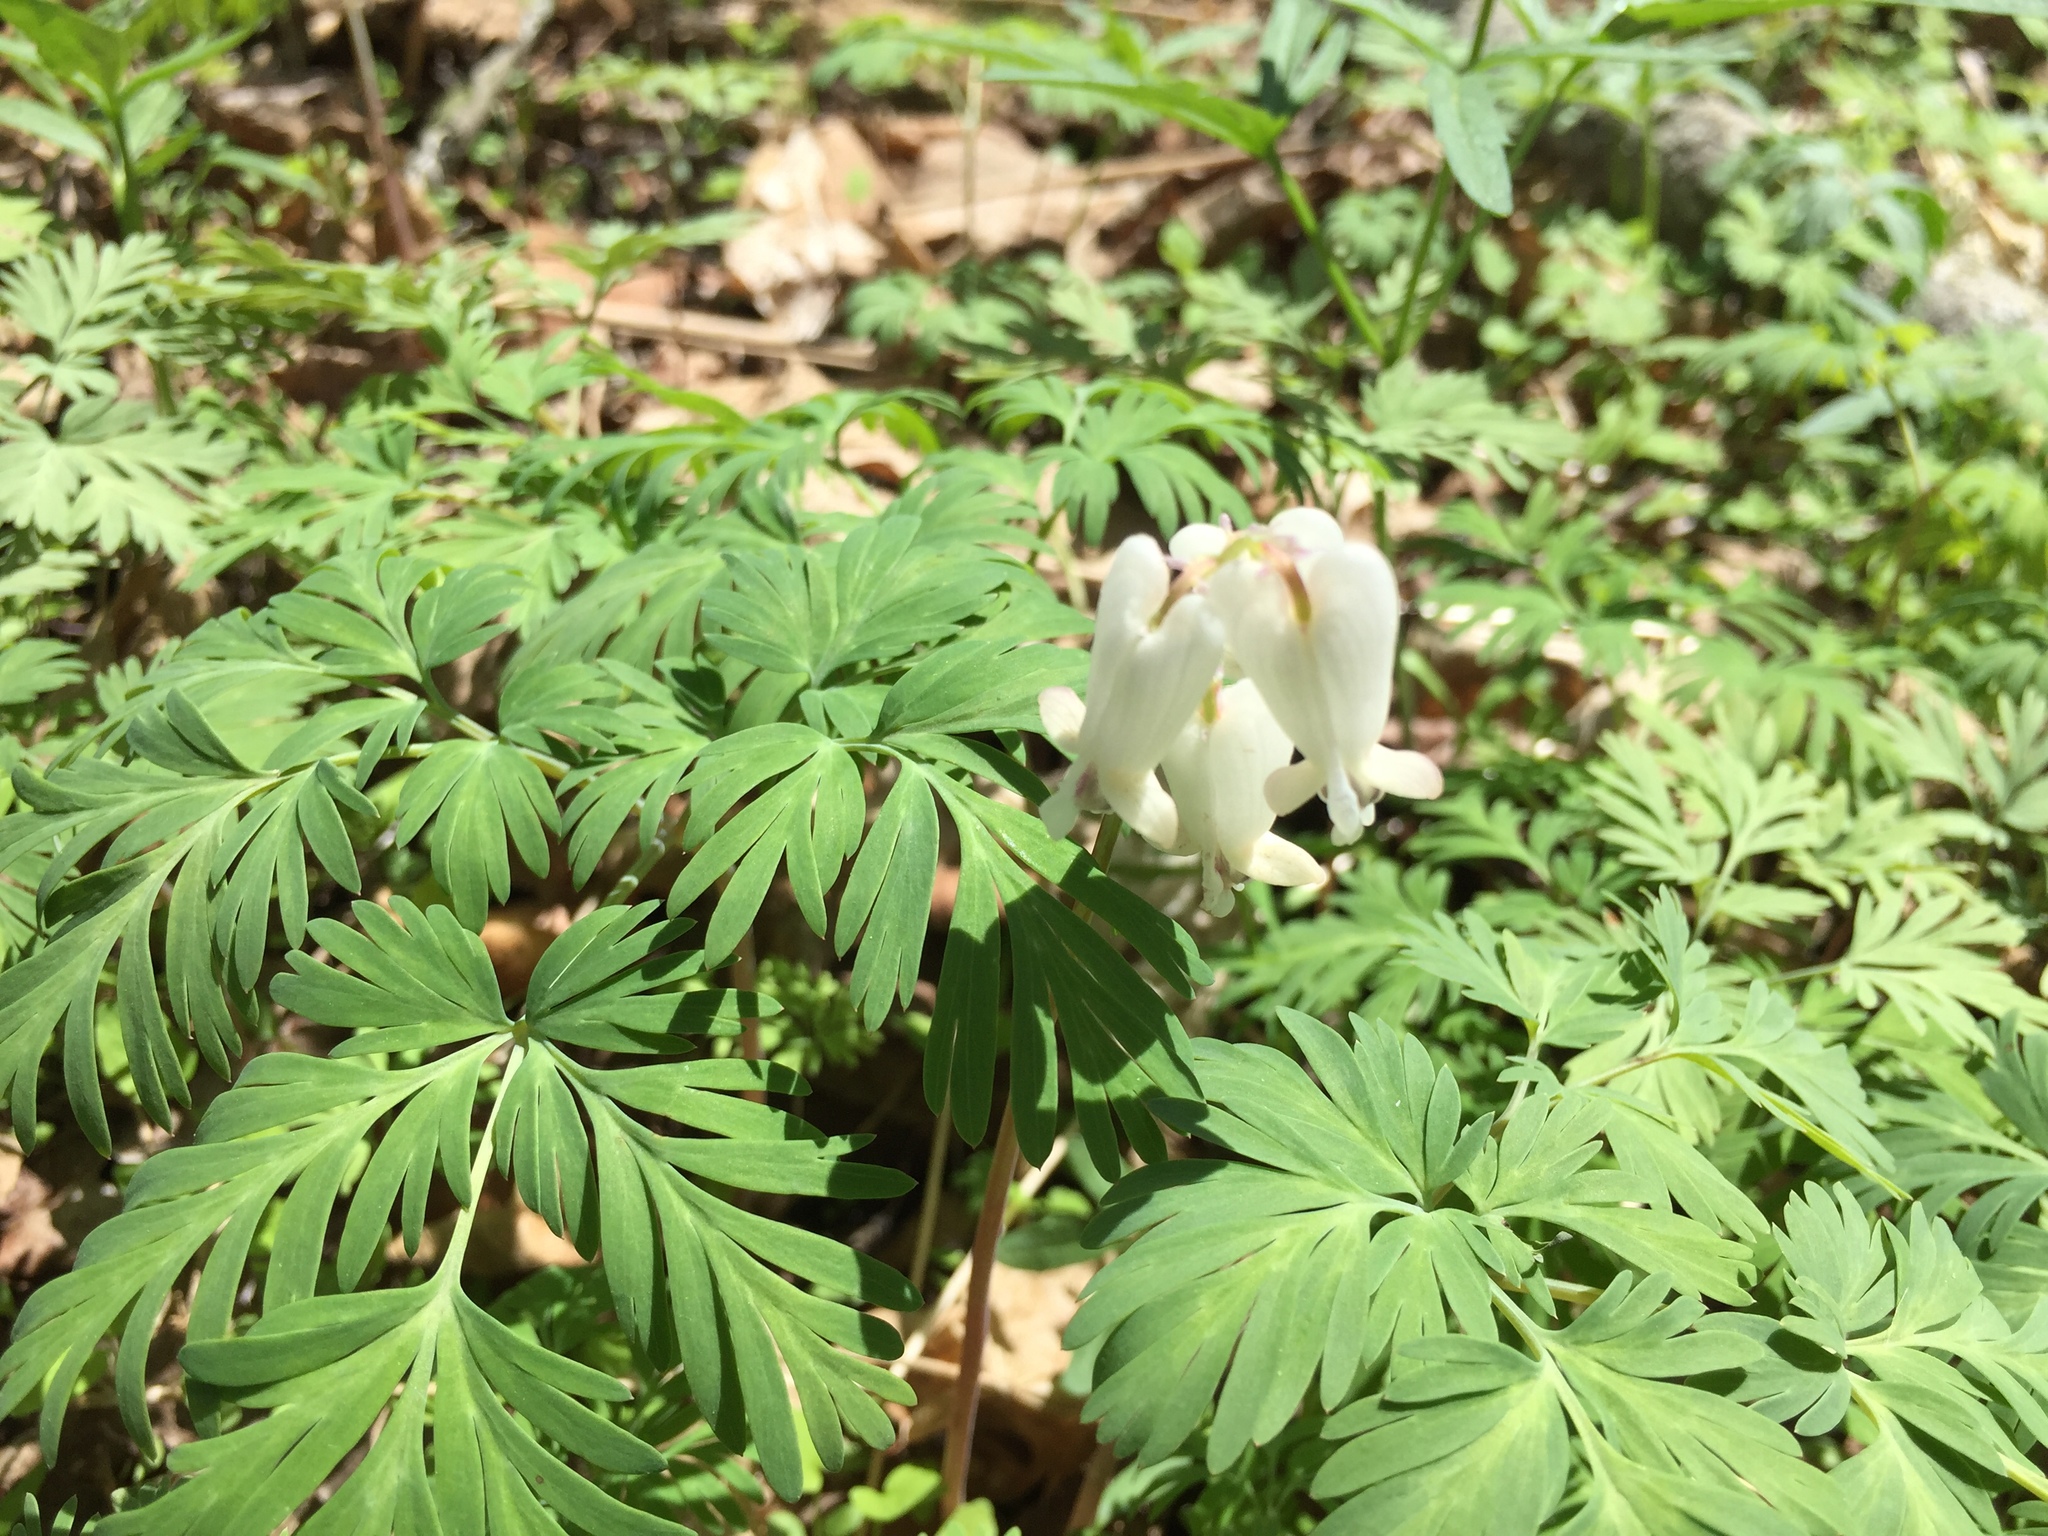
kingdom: Plantae
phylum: Tracheophyta
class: Magnoliopsida
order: Ranunculales
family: Papaveraceae
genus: Dicentra
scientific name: Dicentra canadensis
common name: Squirrel-corn
